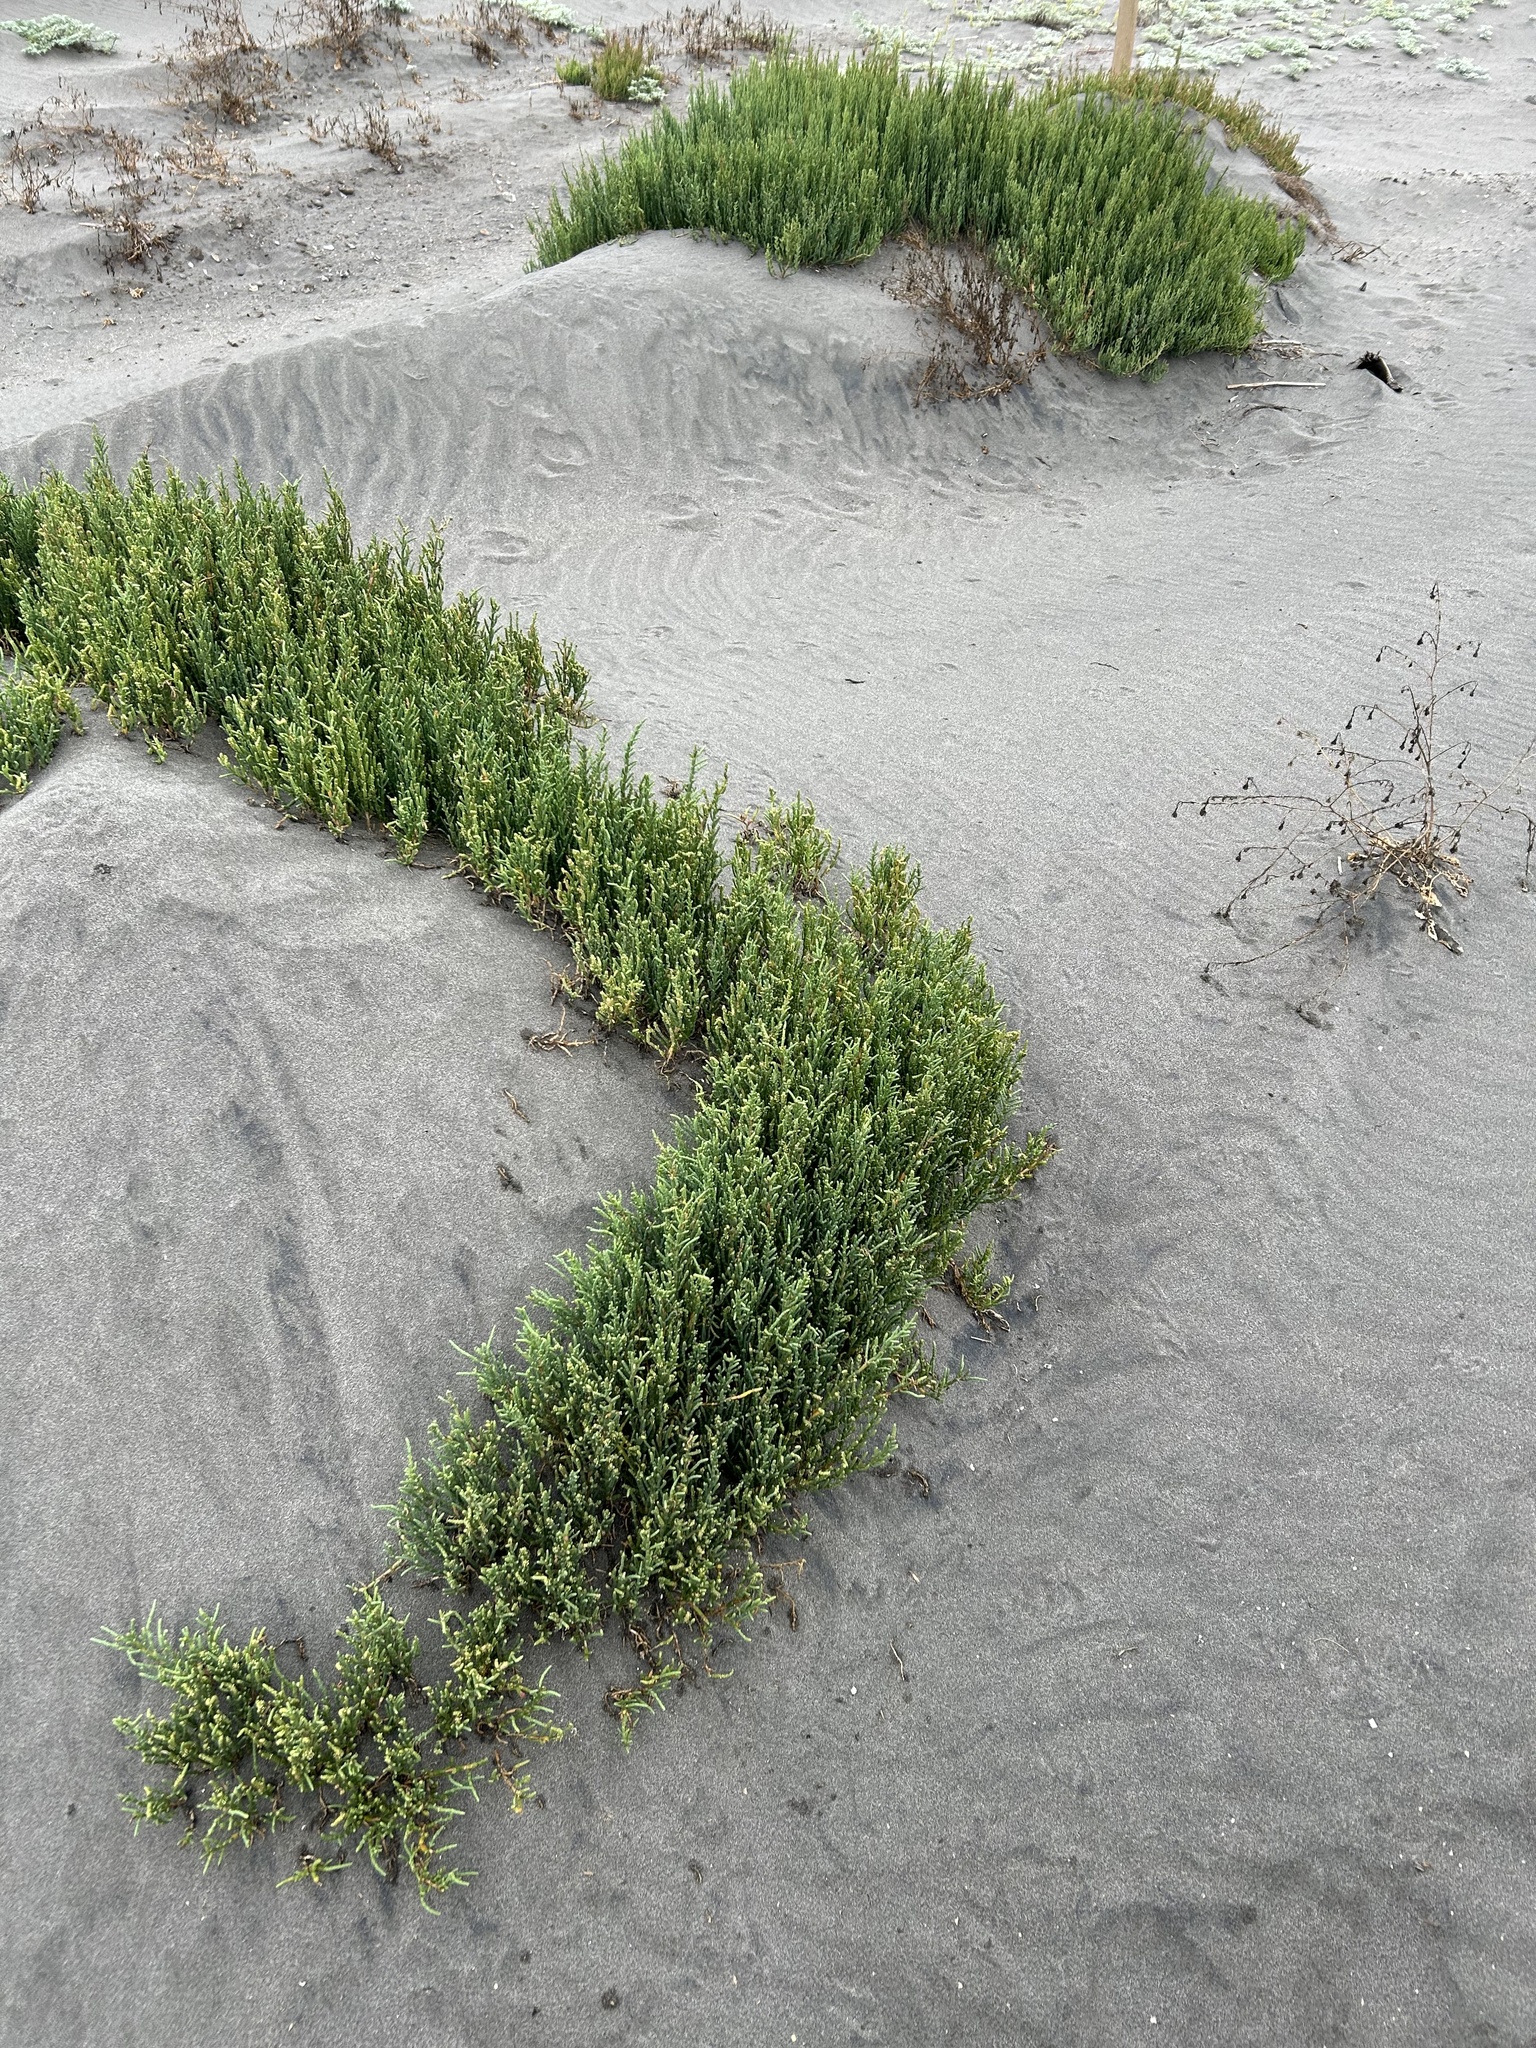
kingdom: Plantae
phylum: Tracheophyta
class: Magnoliopsida
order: Caryophyllales
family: Amaranthaceae
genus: Salicornia
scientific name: Salicornia neei
